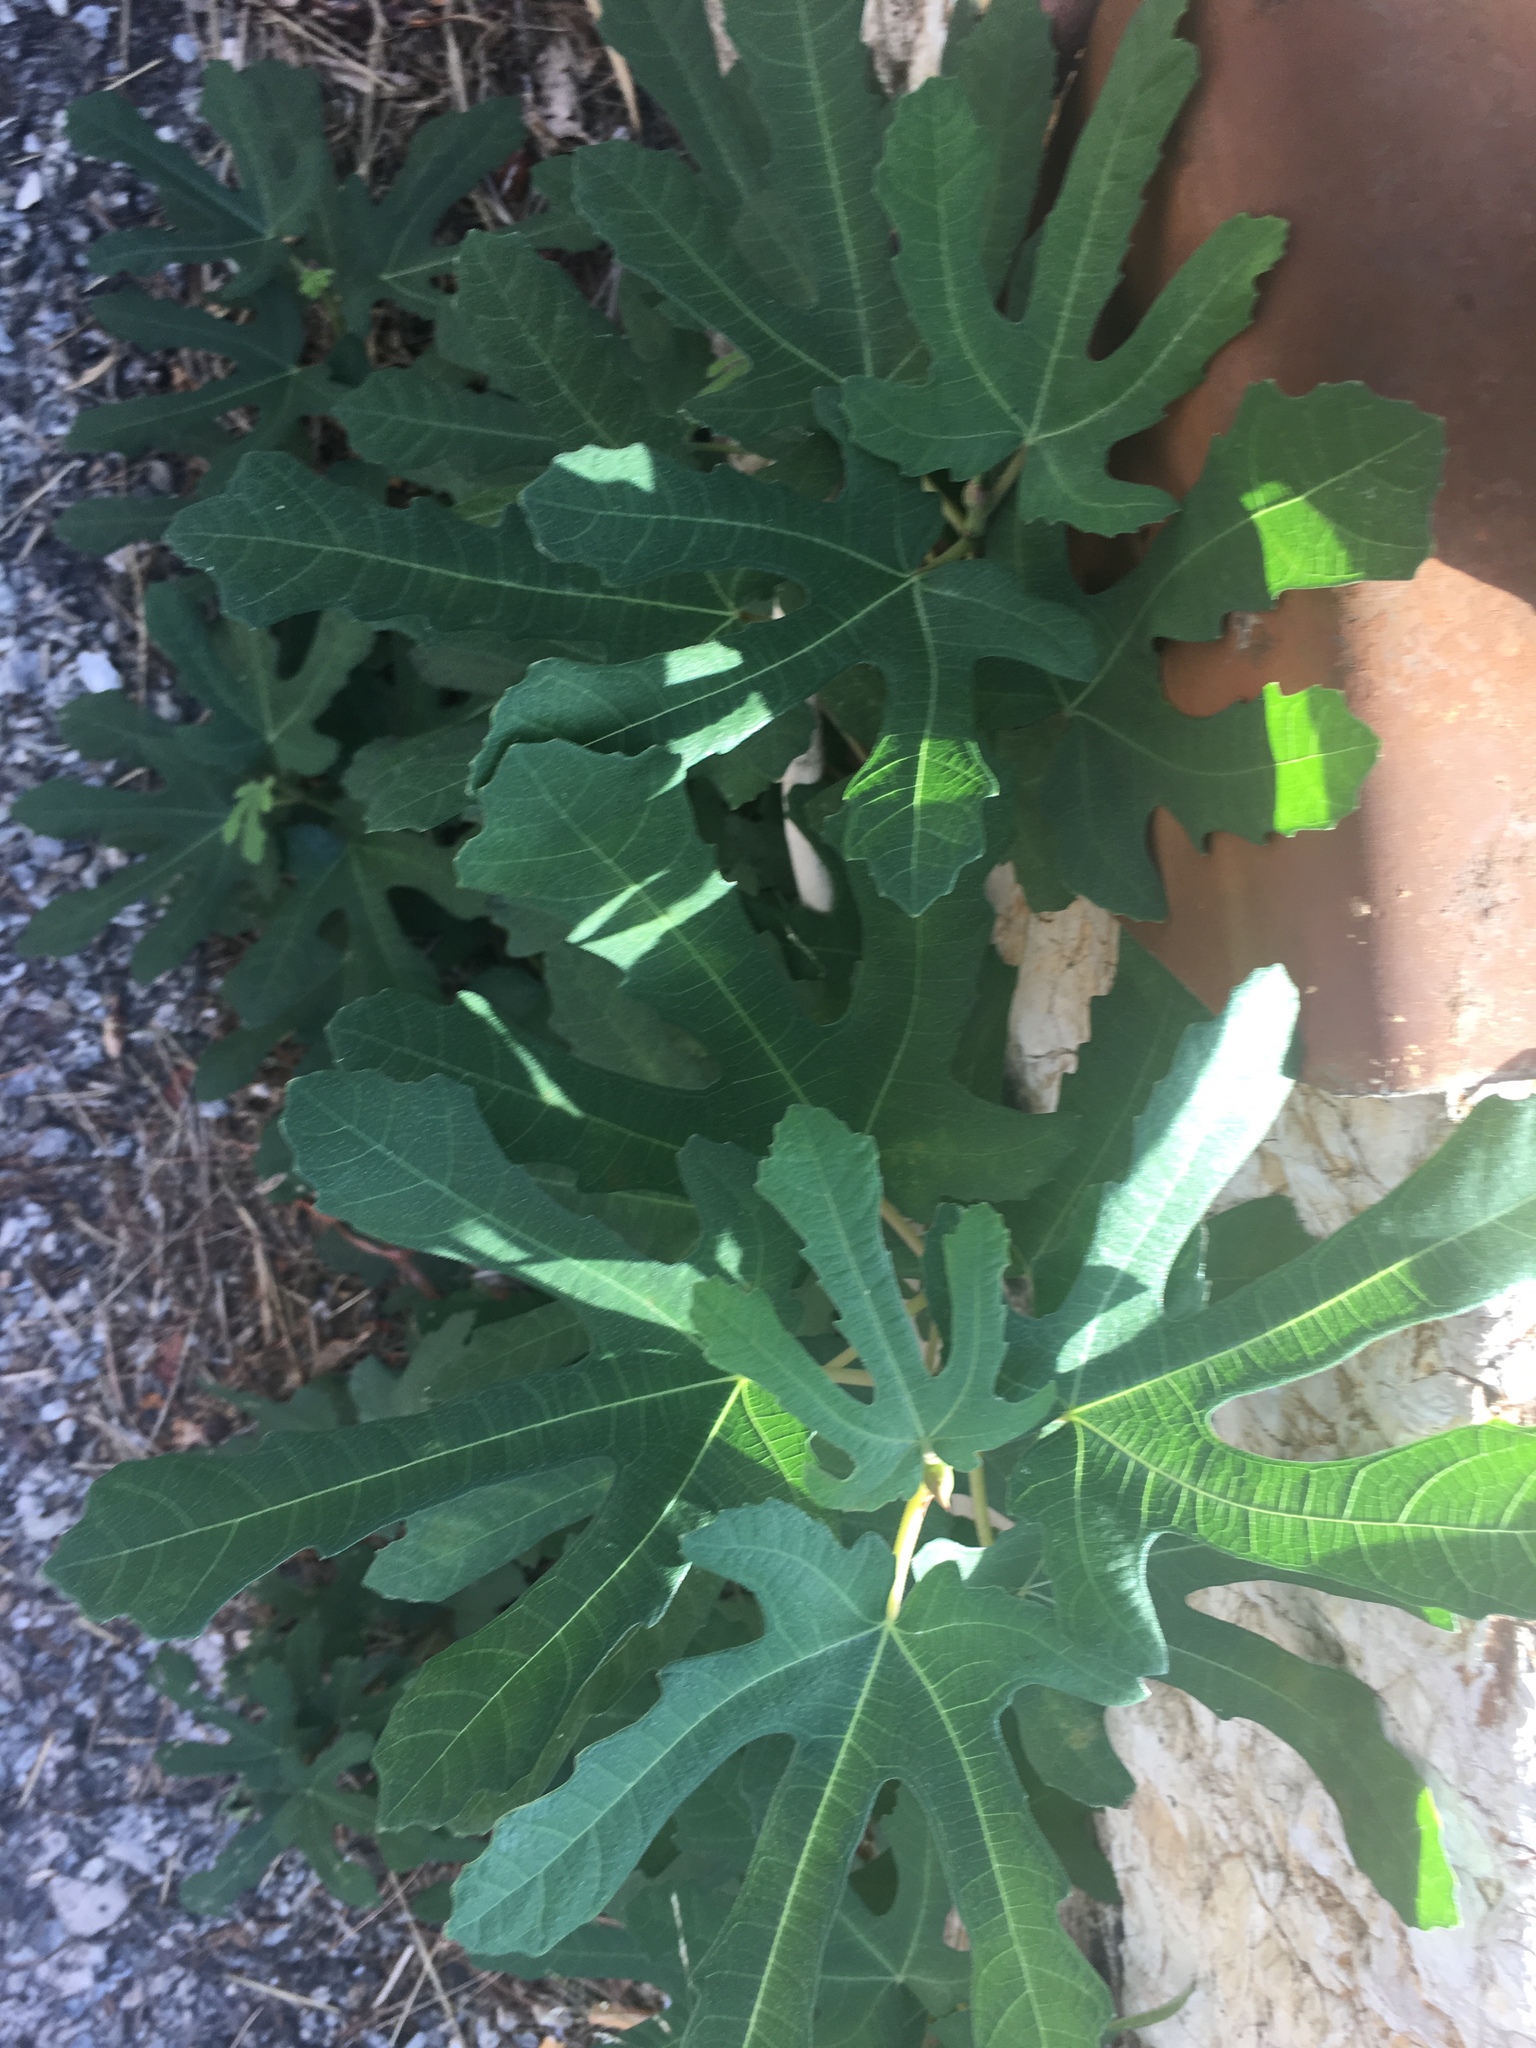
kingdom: Plantae
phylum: Tracheophyta
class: Magnoliopsida
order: Rosales
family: Moraceae
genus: Ficus
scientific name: Ficus carica
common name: Fig
